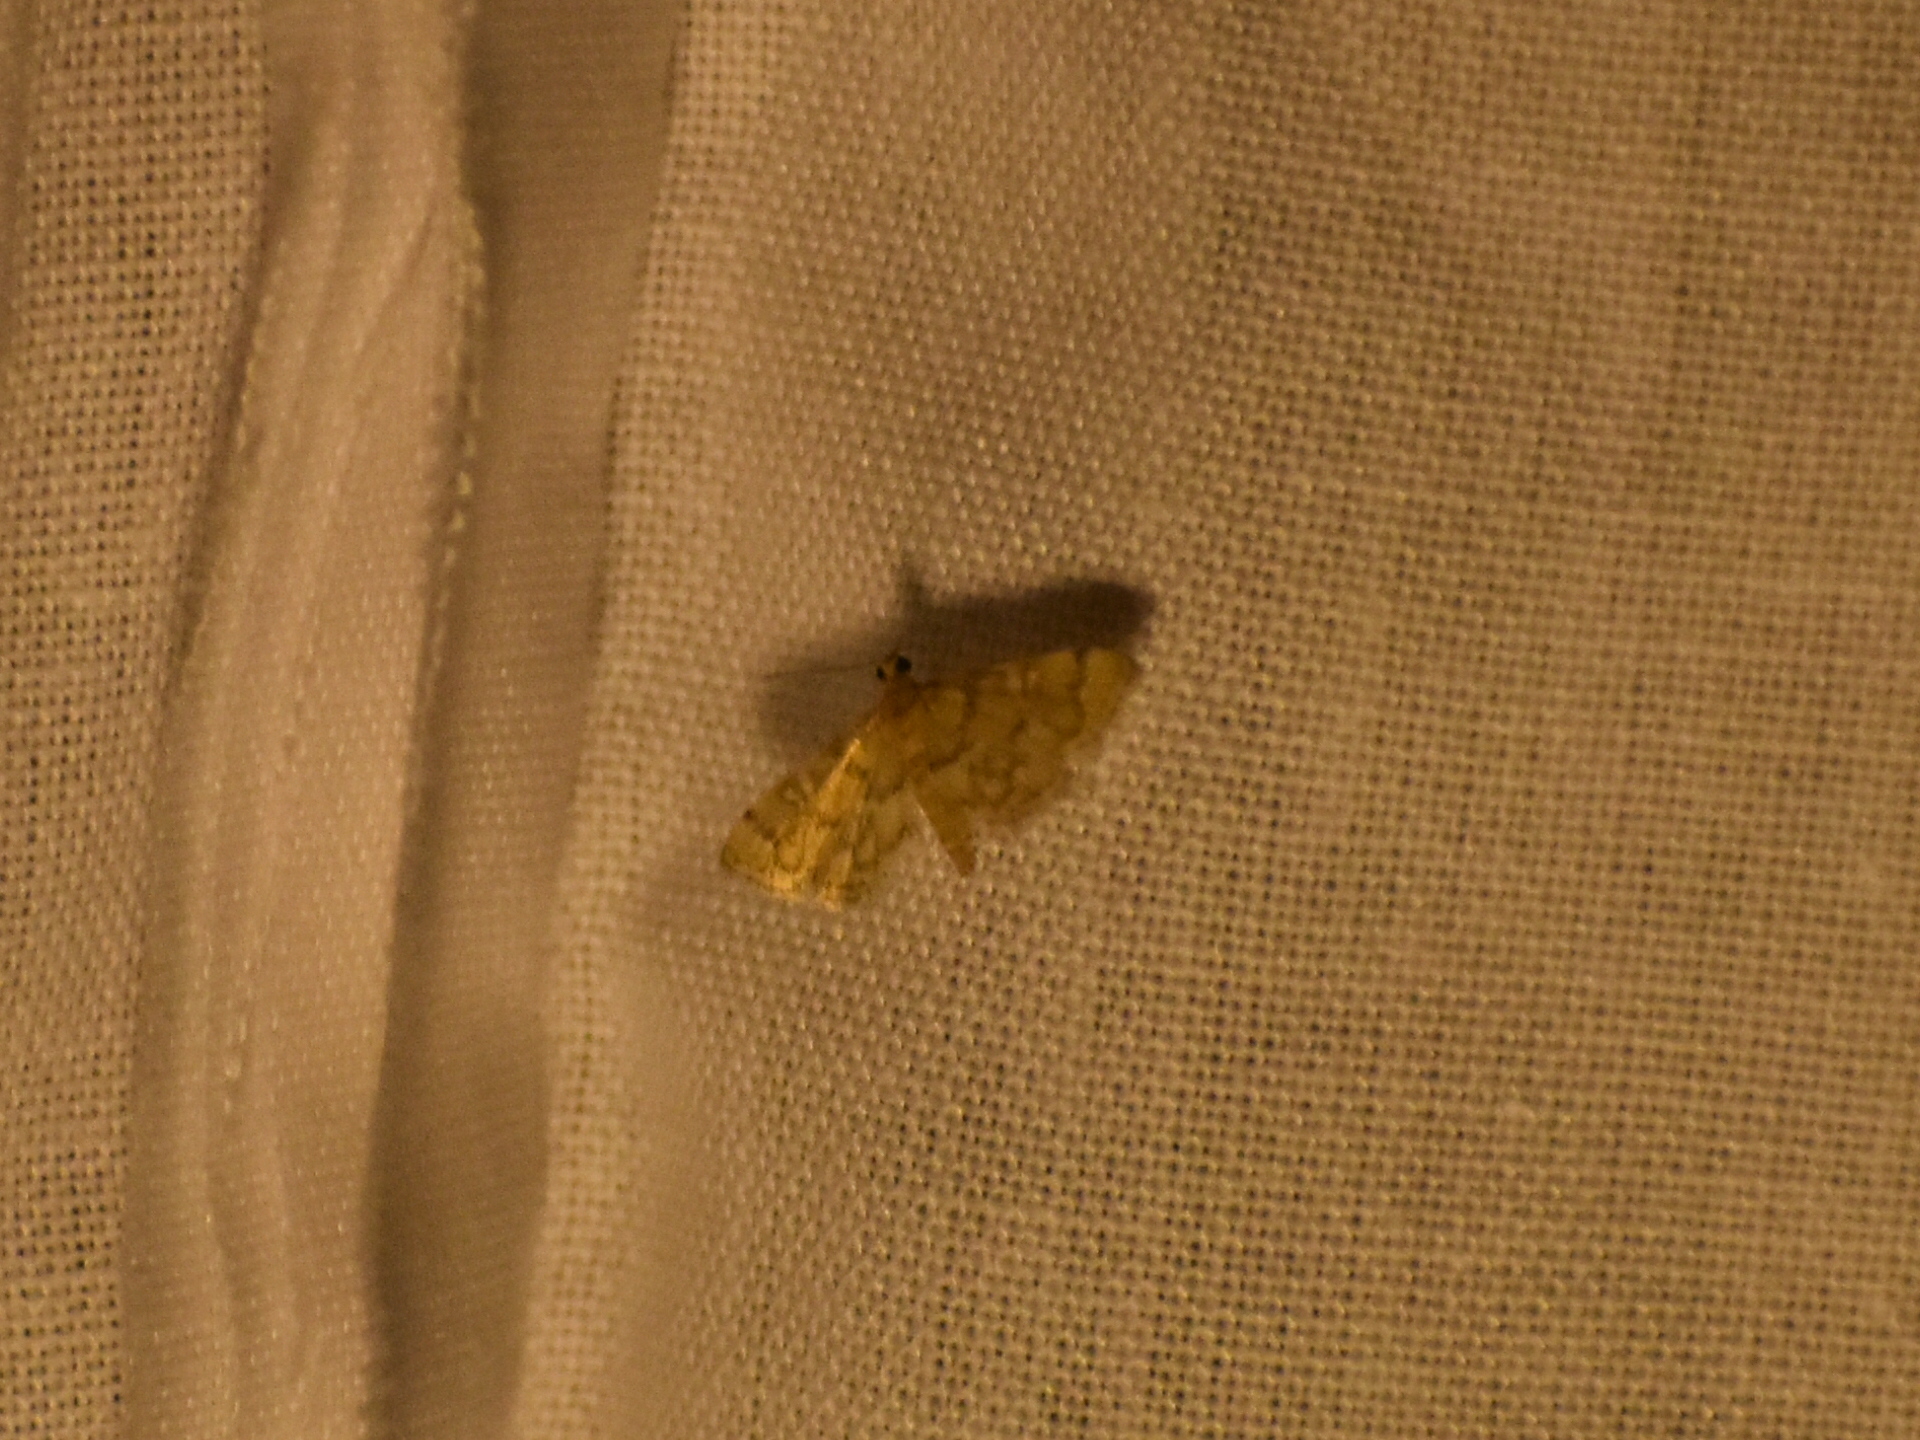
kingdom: Animalia
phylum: Arthropoda
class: Insecta
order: Lepidoptera
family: Crambidae
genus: Apogeshna
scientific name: Apogeshna stenialis
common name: Checkered apogeshna moth
